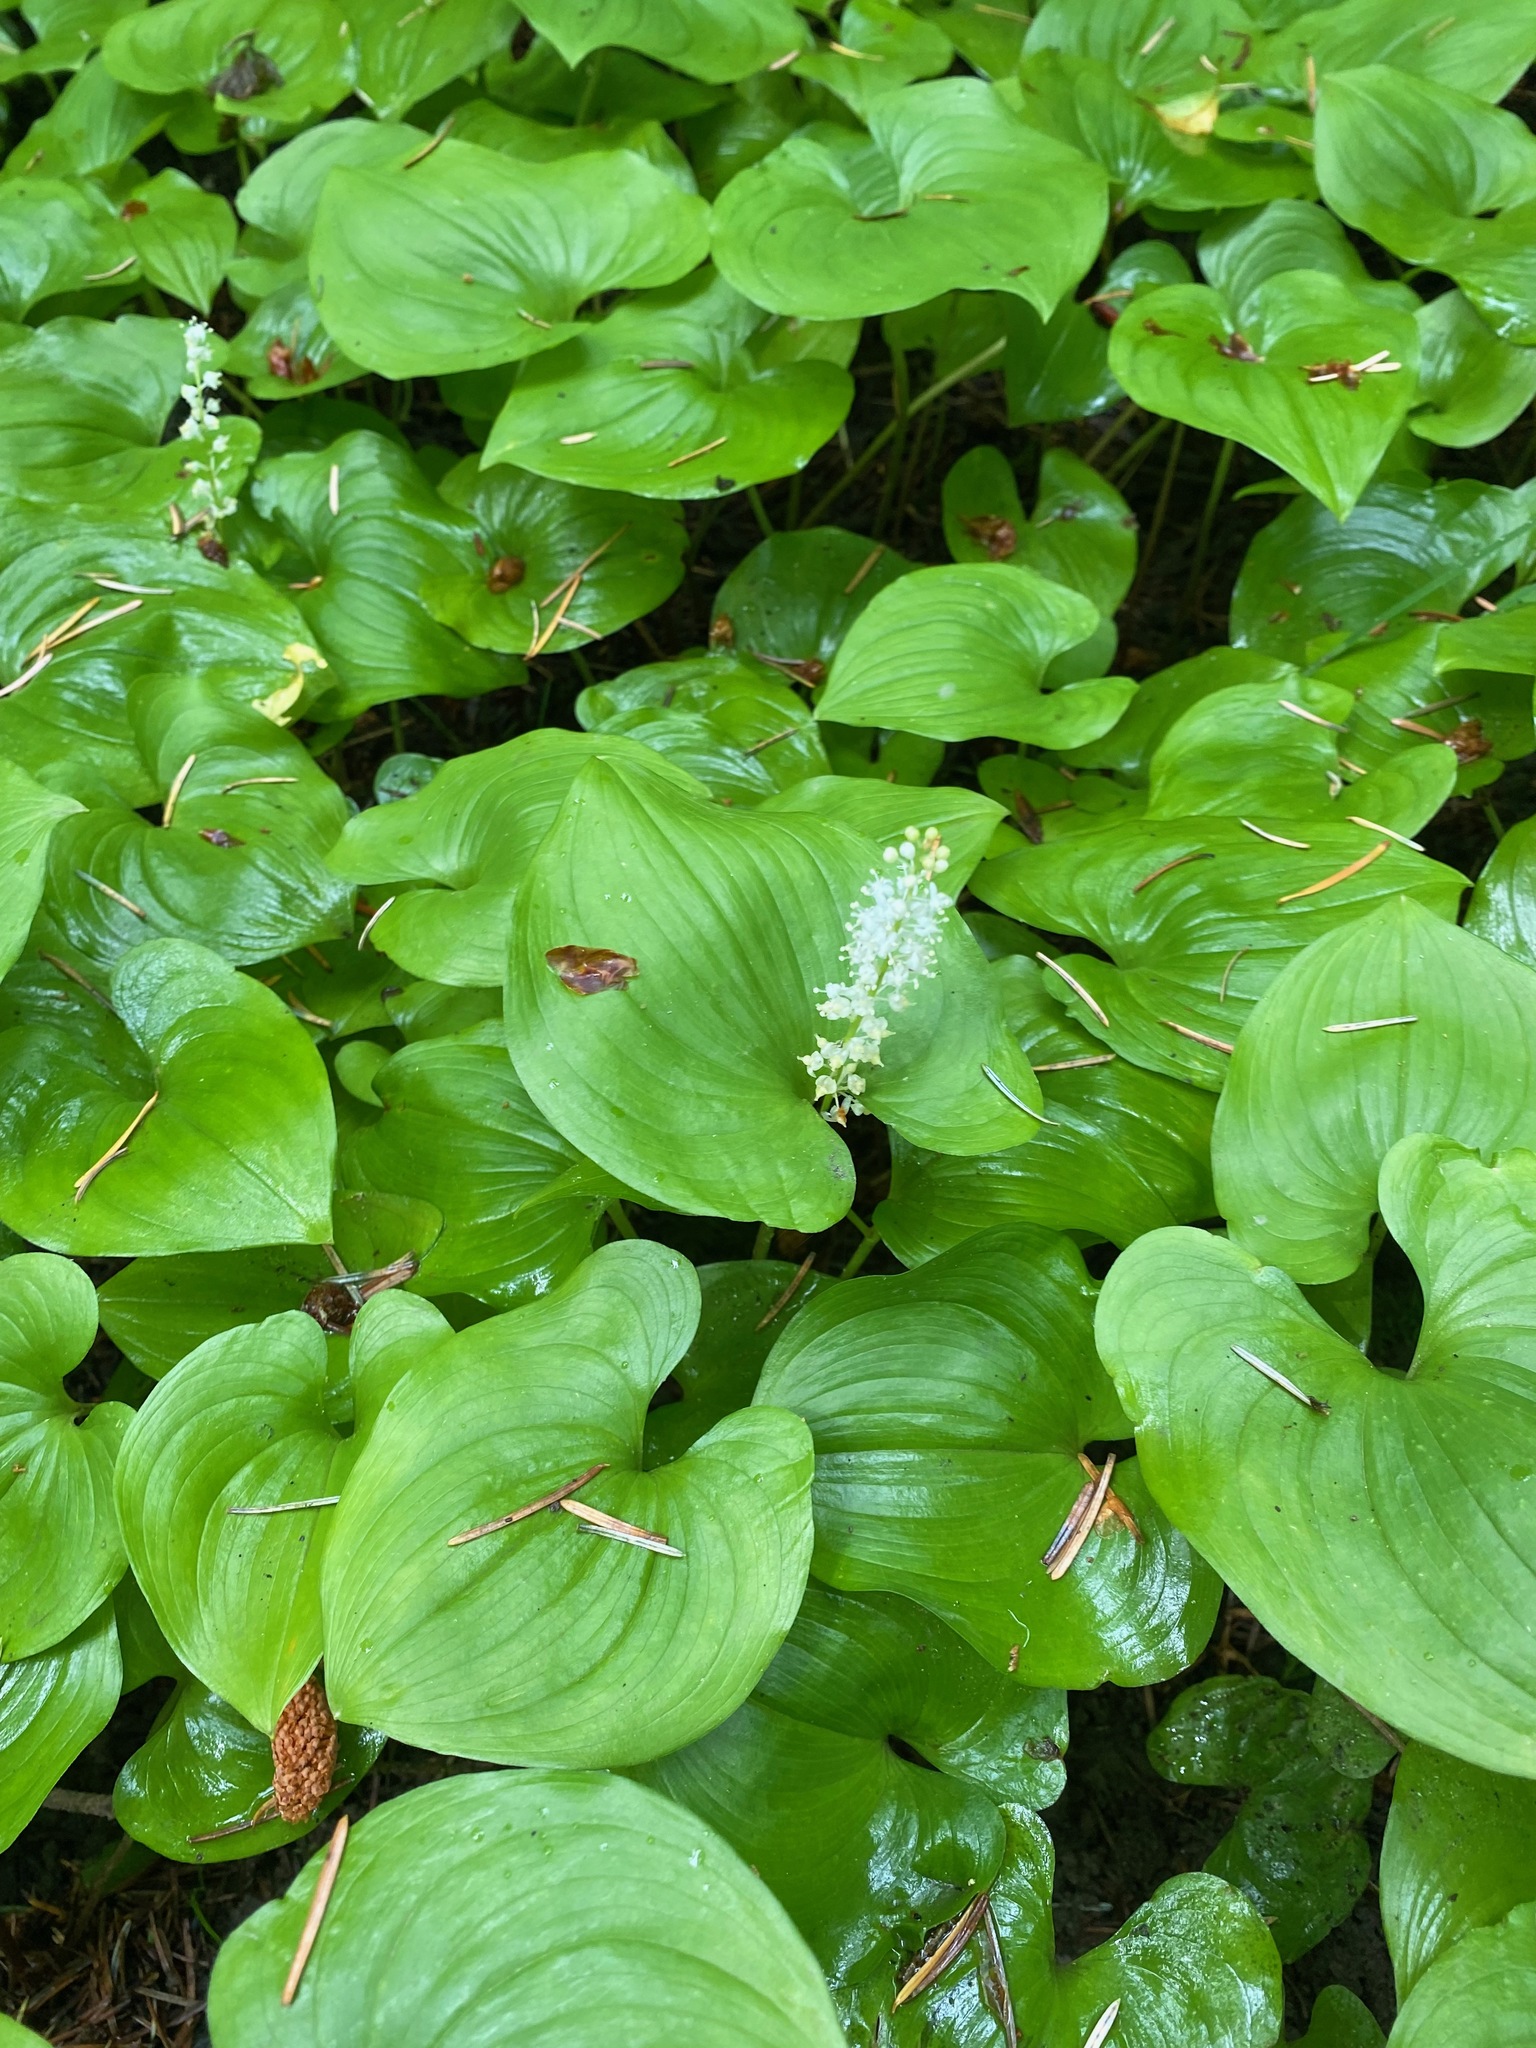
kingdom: Plantae
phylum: Tracheophyta
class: Liliopsida
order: Asparagales
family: Asparagaceae
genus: Maianthemum
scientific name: Maianthemum dilatatum
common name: False lily-of-the-valley
